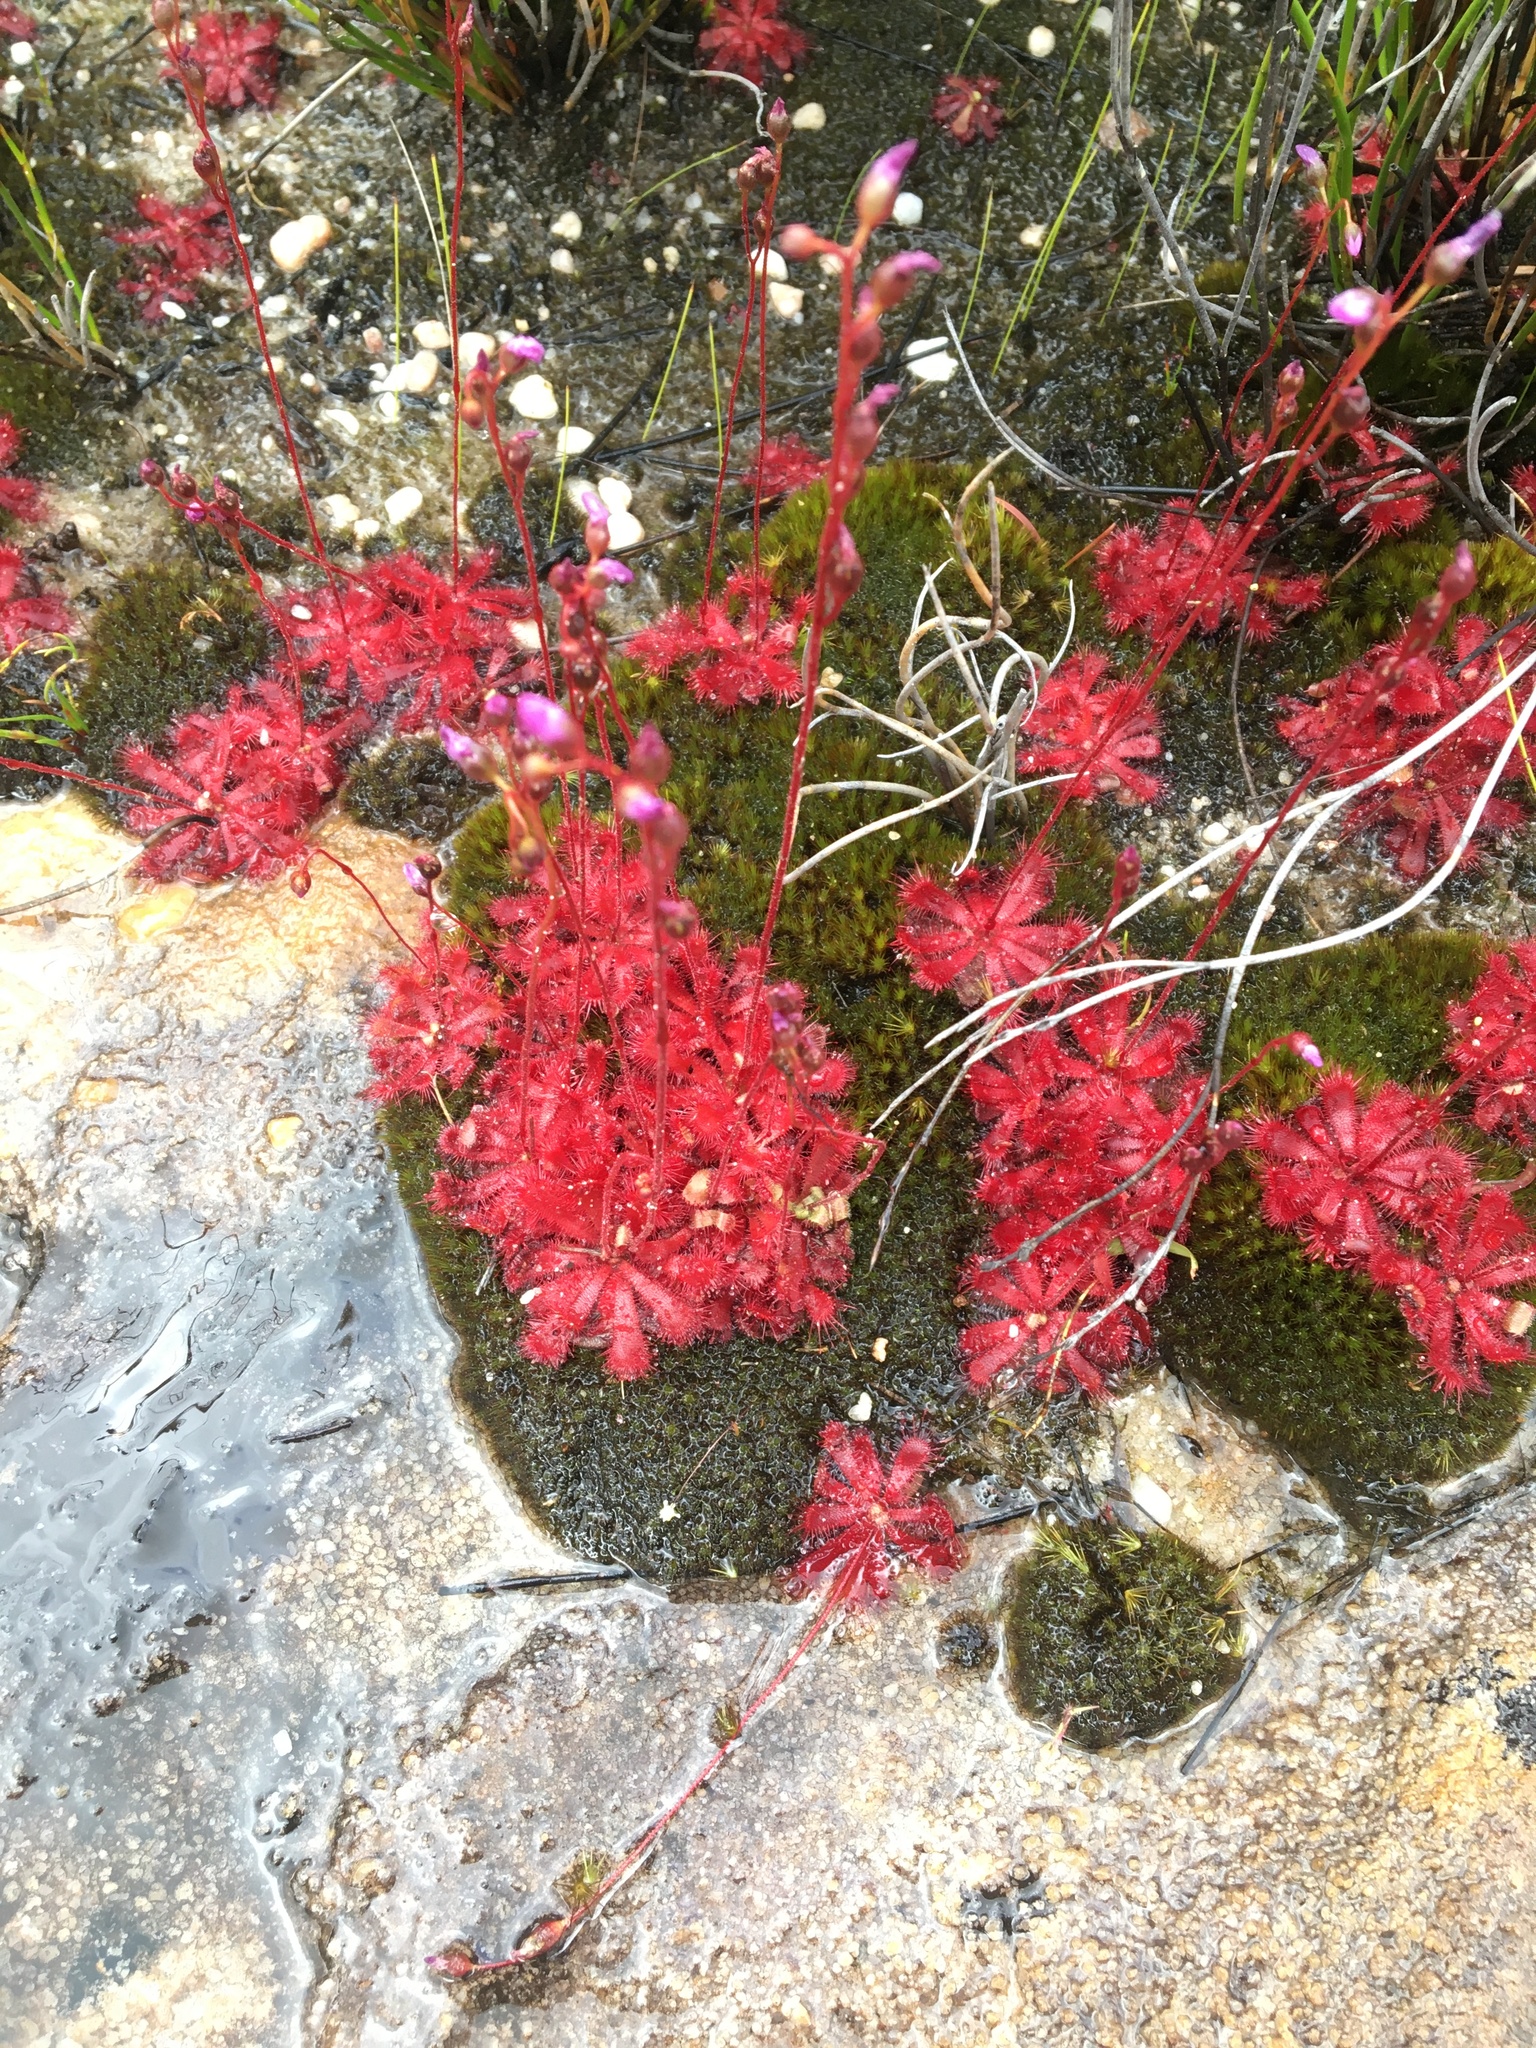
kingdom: Plantae
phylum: Tracheophyta
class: Magnoliopsida
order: Caryophyllales
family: Droseraceae
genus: Drosera
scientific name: Drosera trinervia
